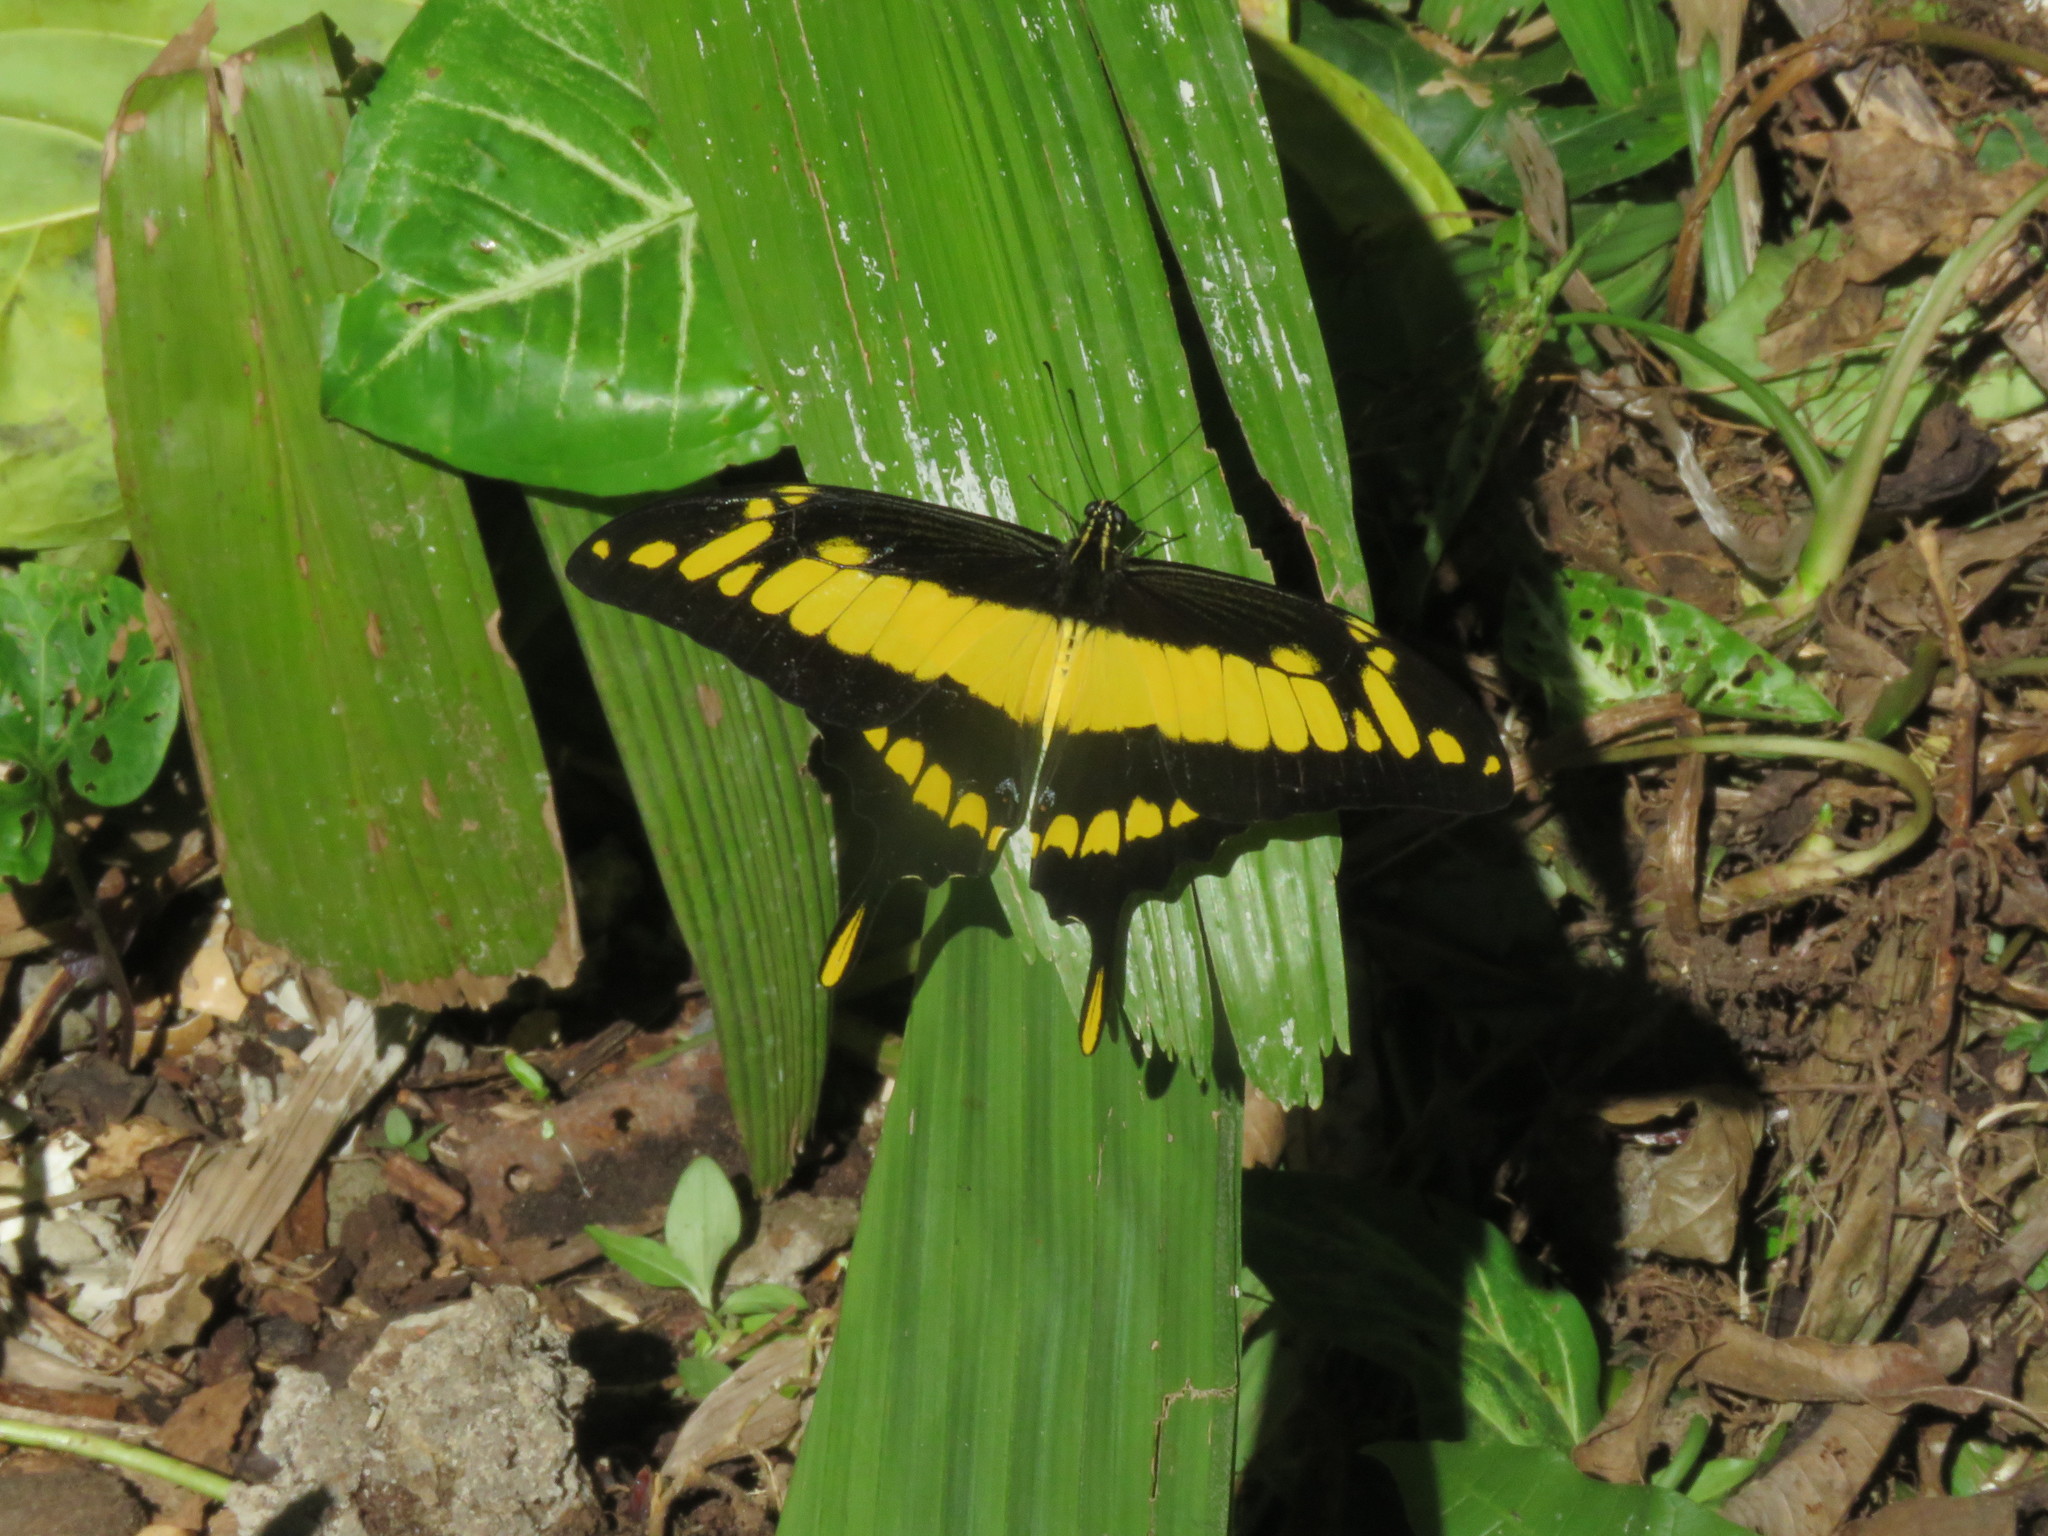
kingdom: Animalia
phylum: Arthropoda
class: Insecta
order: Lepidoptera
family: Papilionidae
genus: Papilio
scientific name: Papilio thoas
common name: King swallowtail
